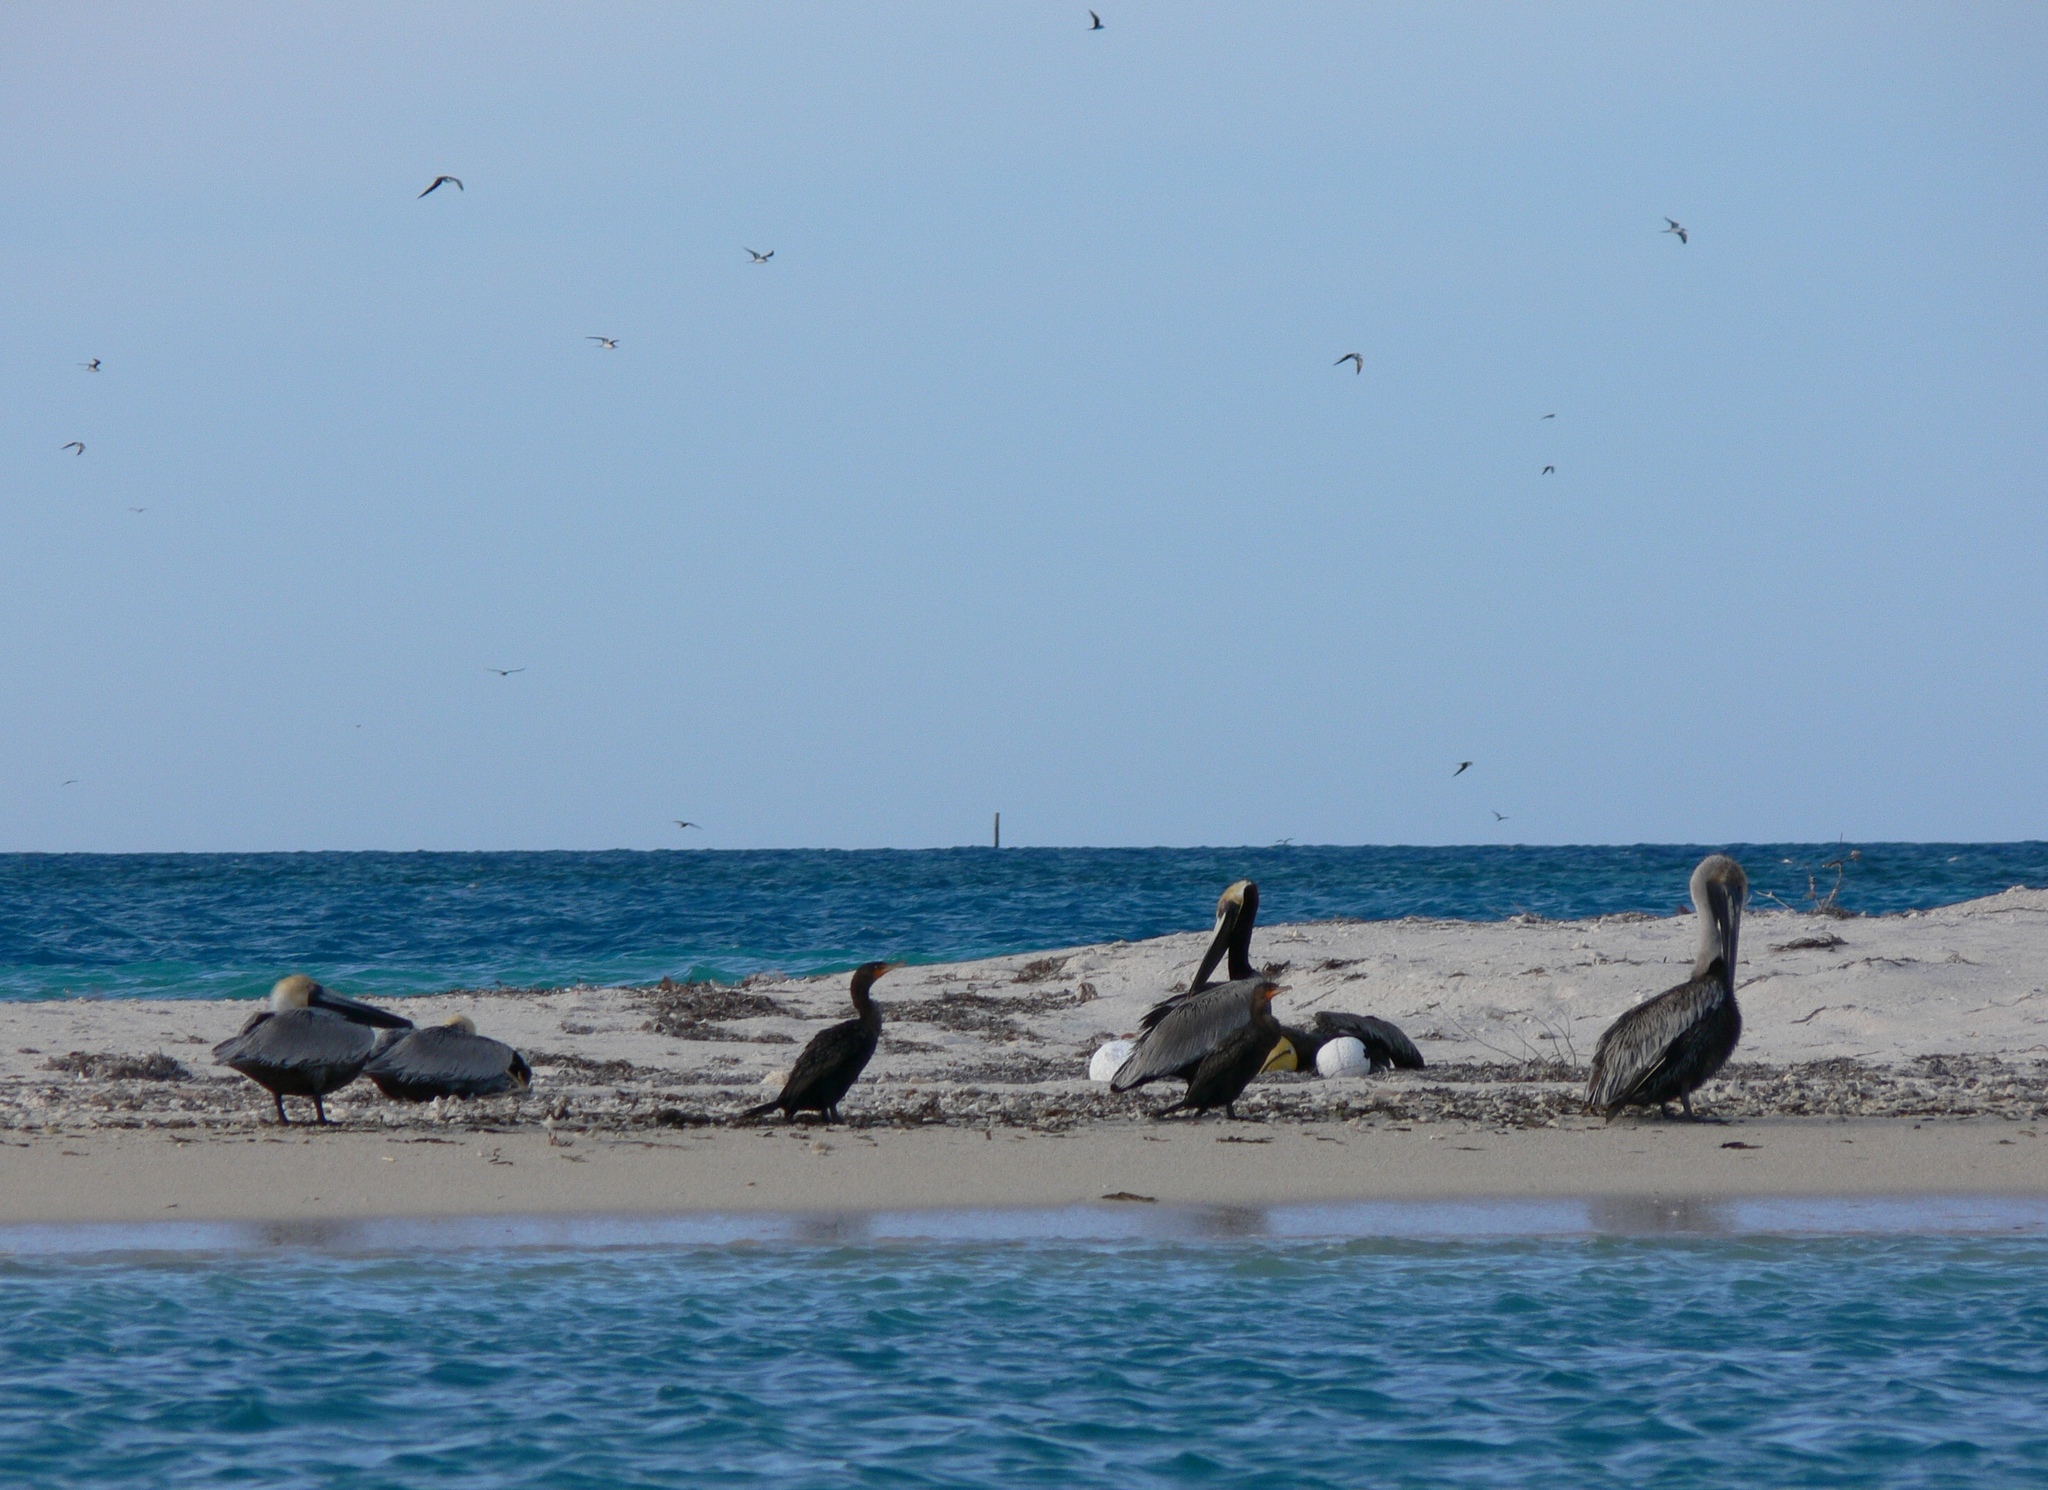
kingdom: Animalia
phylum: Chordata
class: Aves
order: Suliformes
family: Phalacrocoracidae
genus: Phalacrocorax
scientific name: Phalacrocorax auritus
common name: Double-crested cormorant
